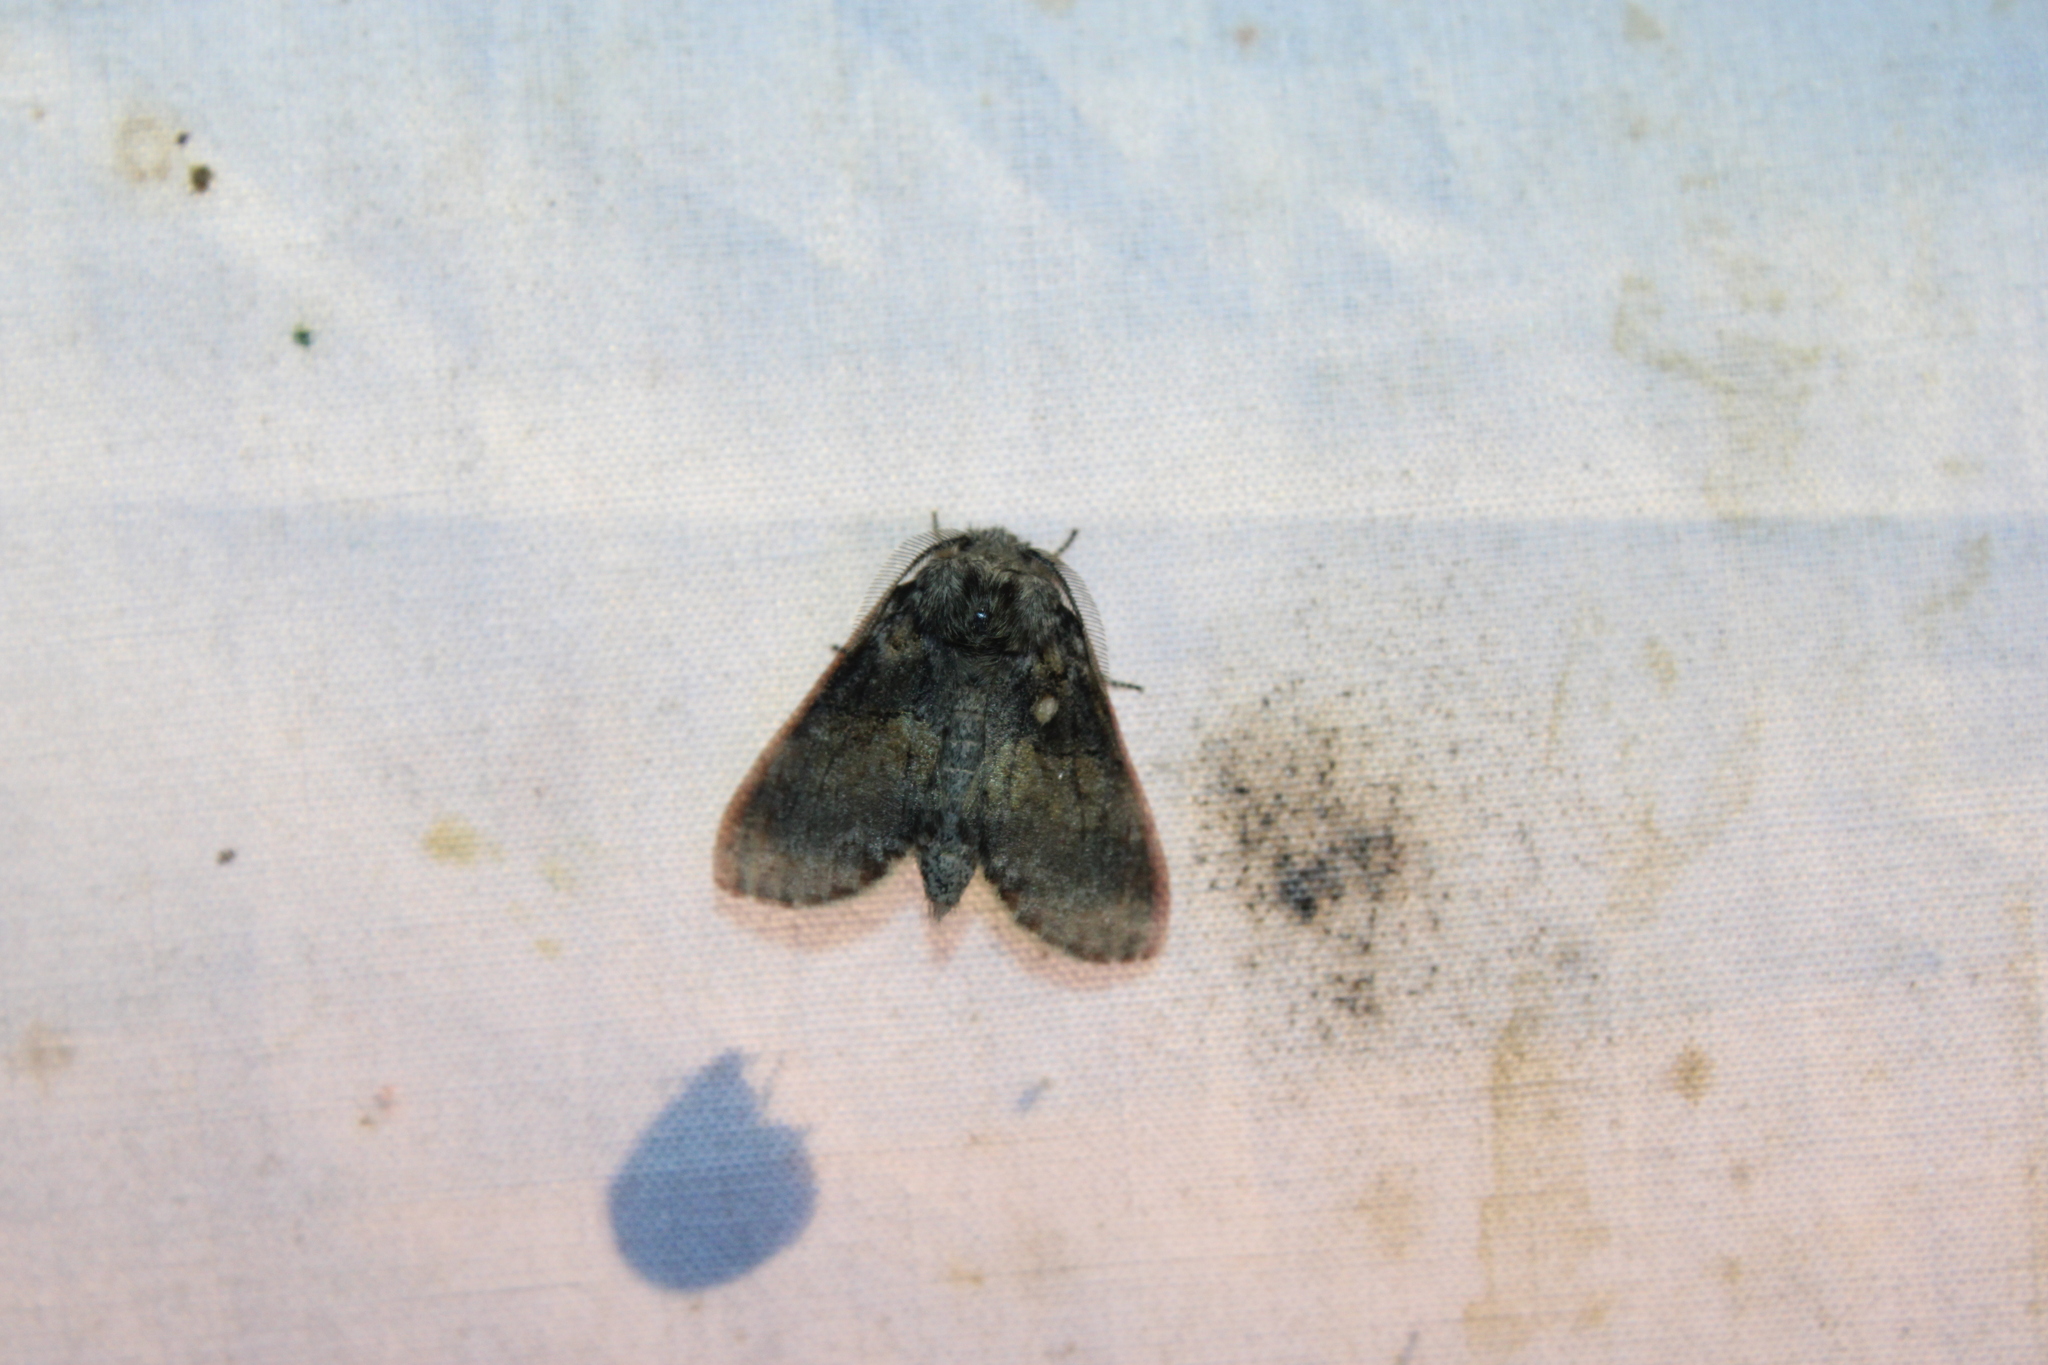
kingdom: Animalia
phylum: Arthropoda
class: Insecta
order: Lepidoptera
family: Notodontidae
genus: Gluphisia
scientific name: Gluphisia septentrionis
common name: Common gluphisia
